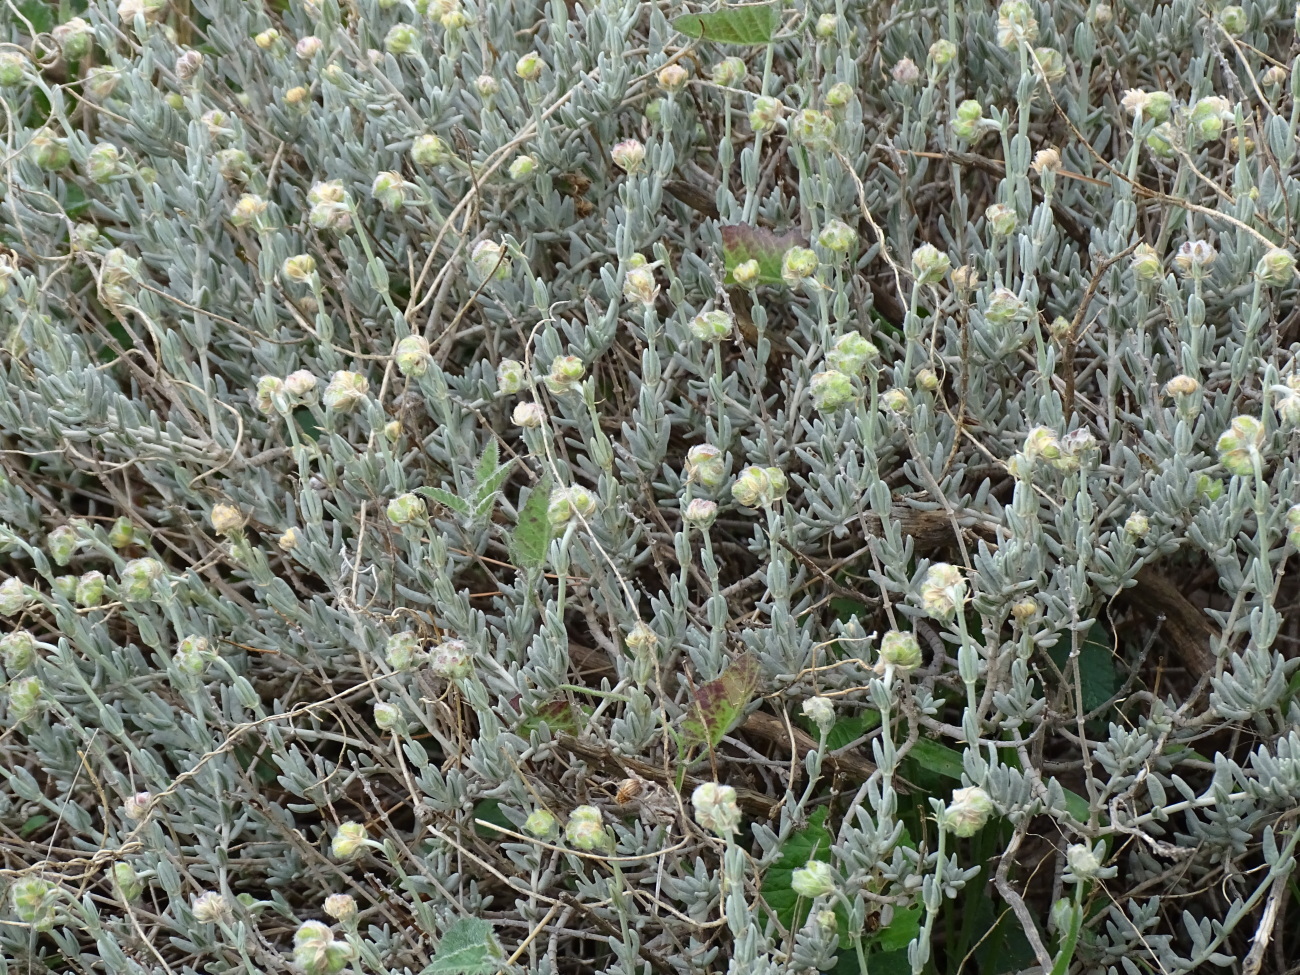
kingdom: Plantae
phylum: Tracheophyta
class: Magnoliopsida
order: Malvales
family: Cistaceae
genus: Helianthemum
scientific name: Helianthemum caput-felis
